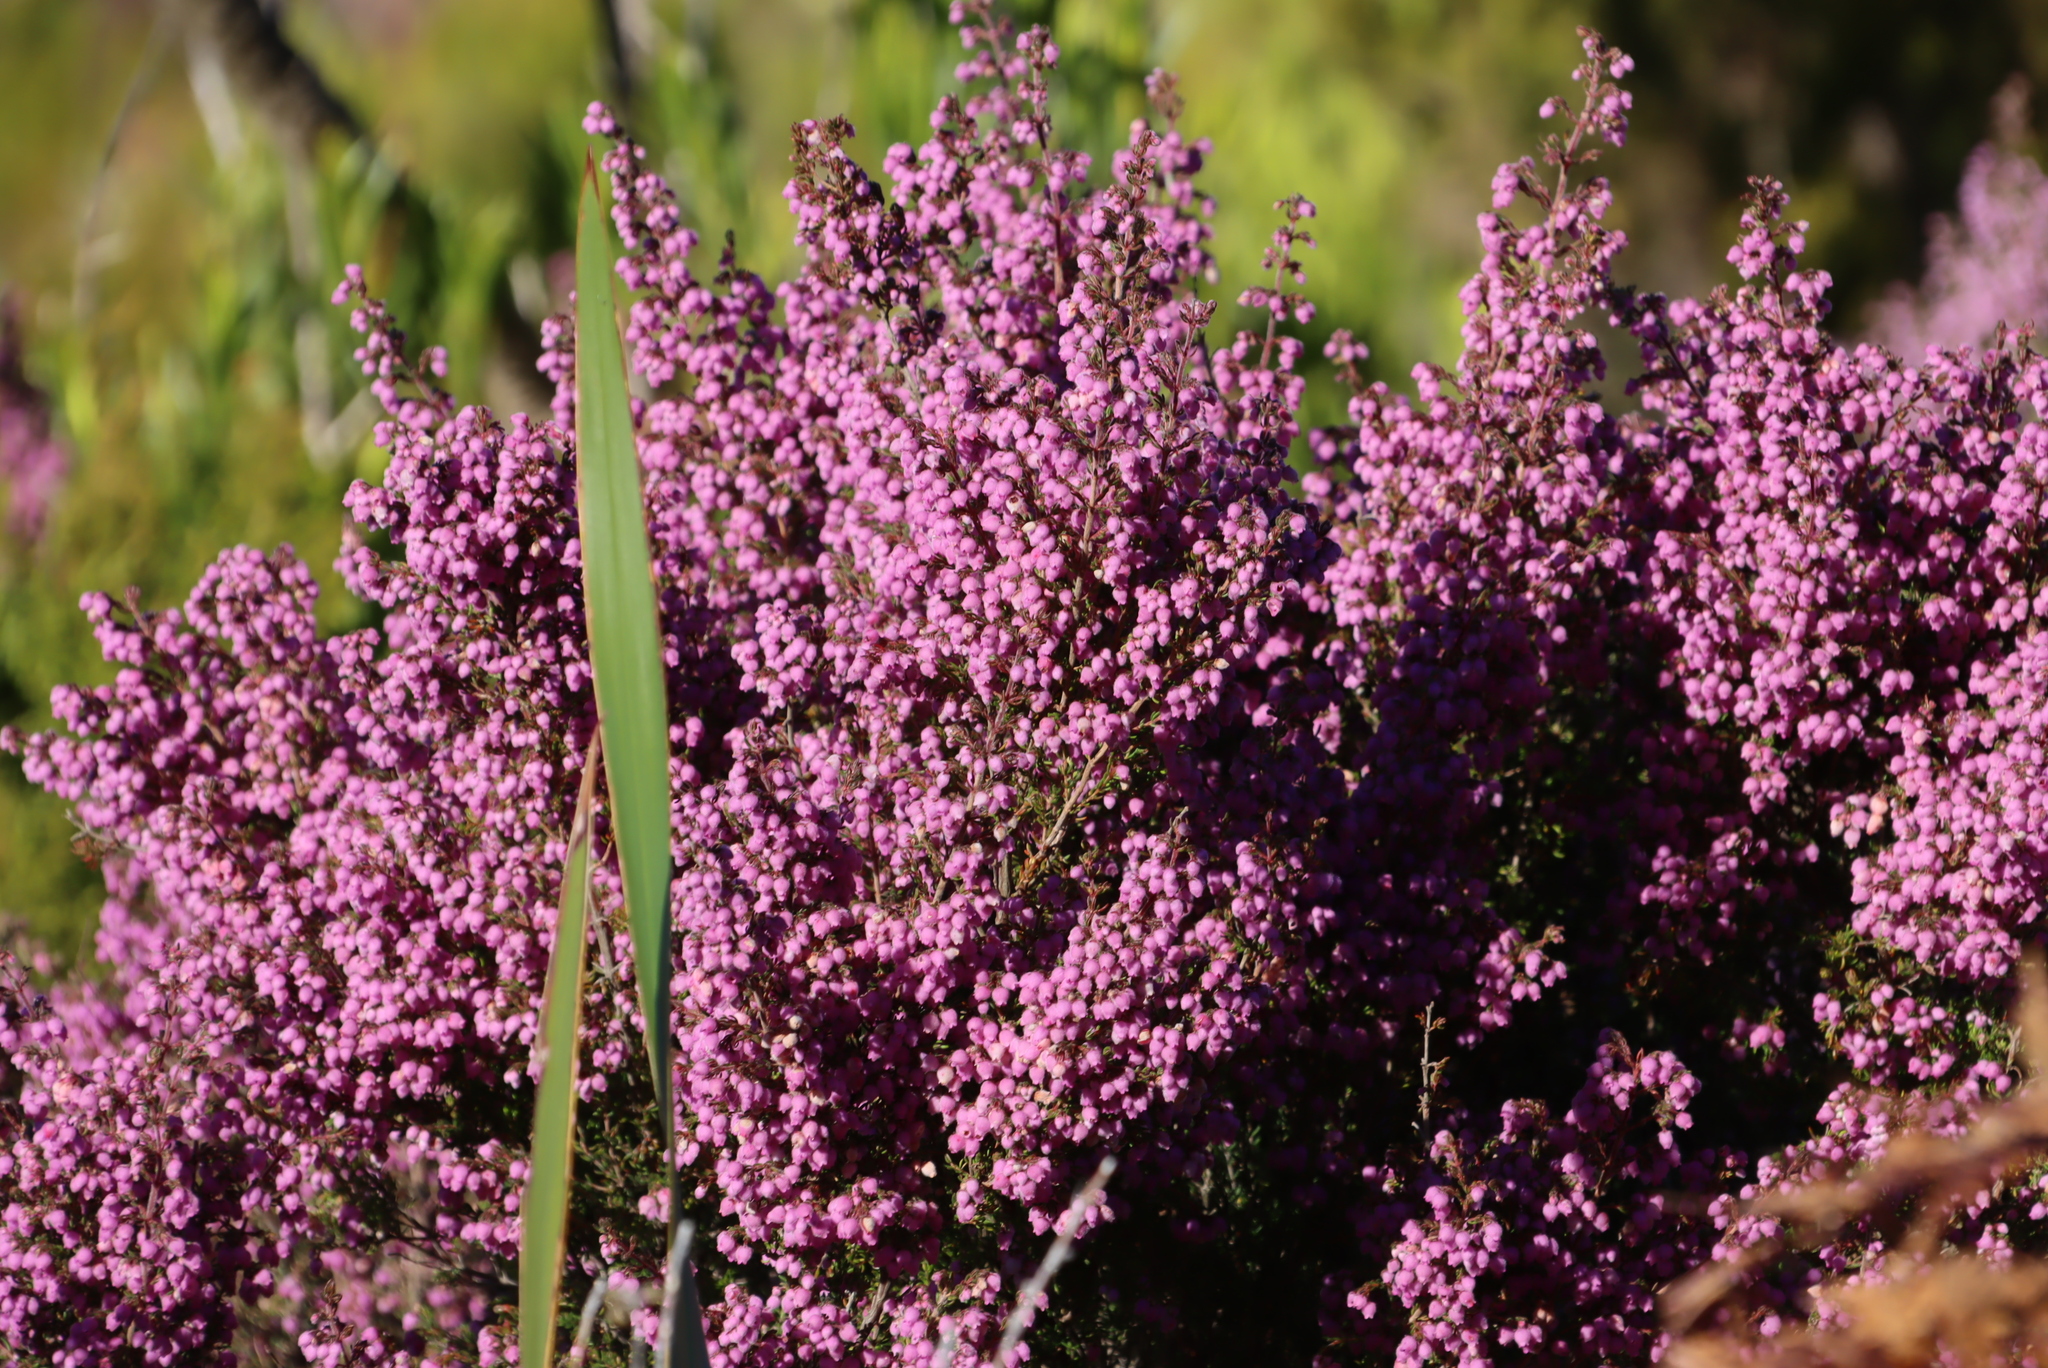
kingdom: Plantae
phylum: Tracheophyta
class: Magnoliopsida
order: Ericales
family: Ericaceae
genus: Erica
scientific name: Erica hirtiflora
